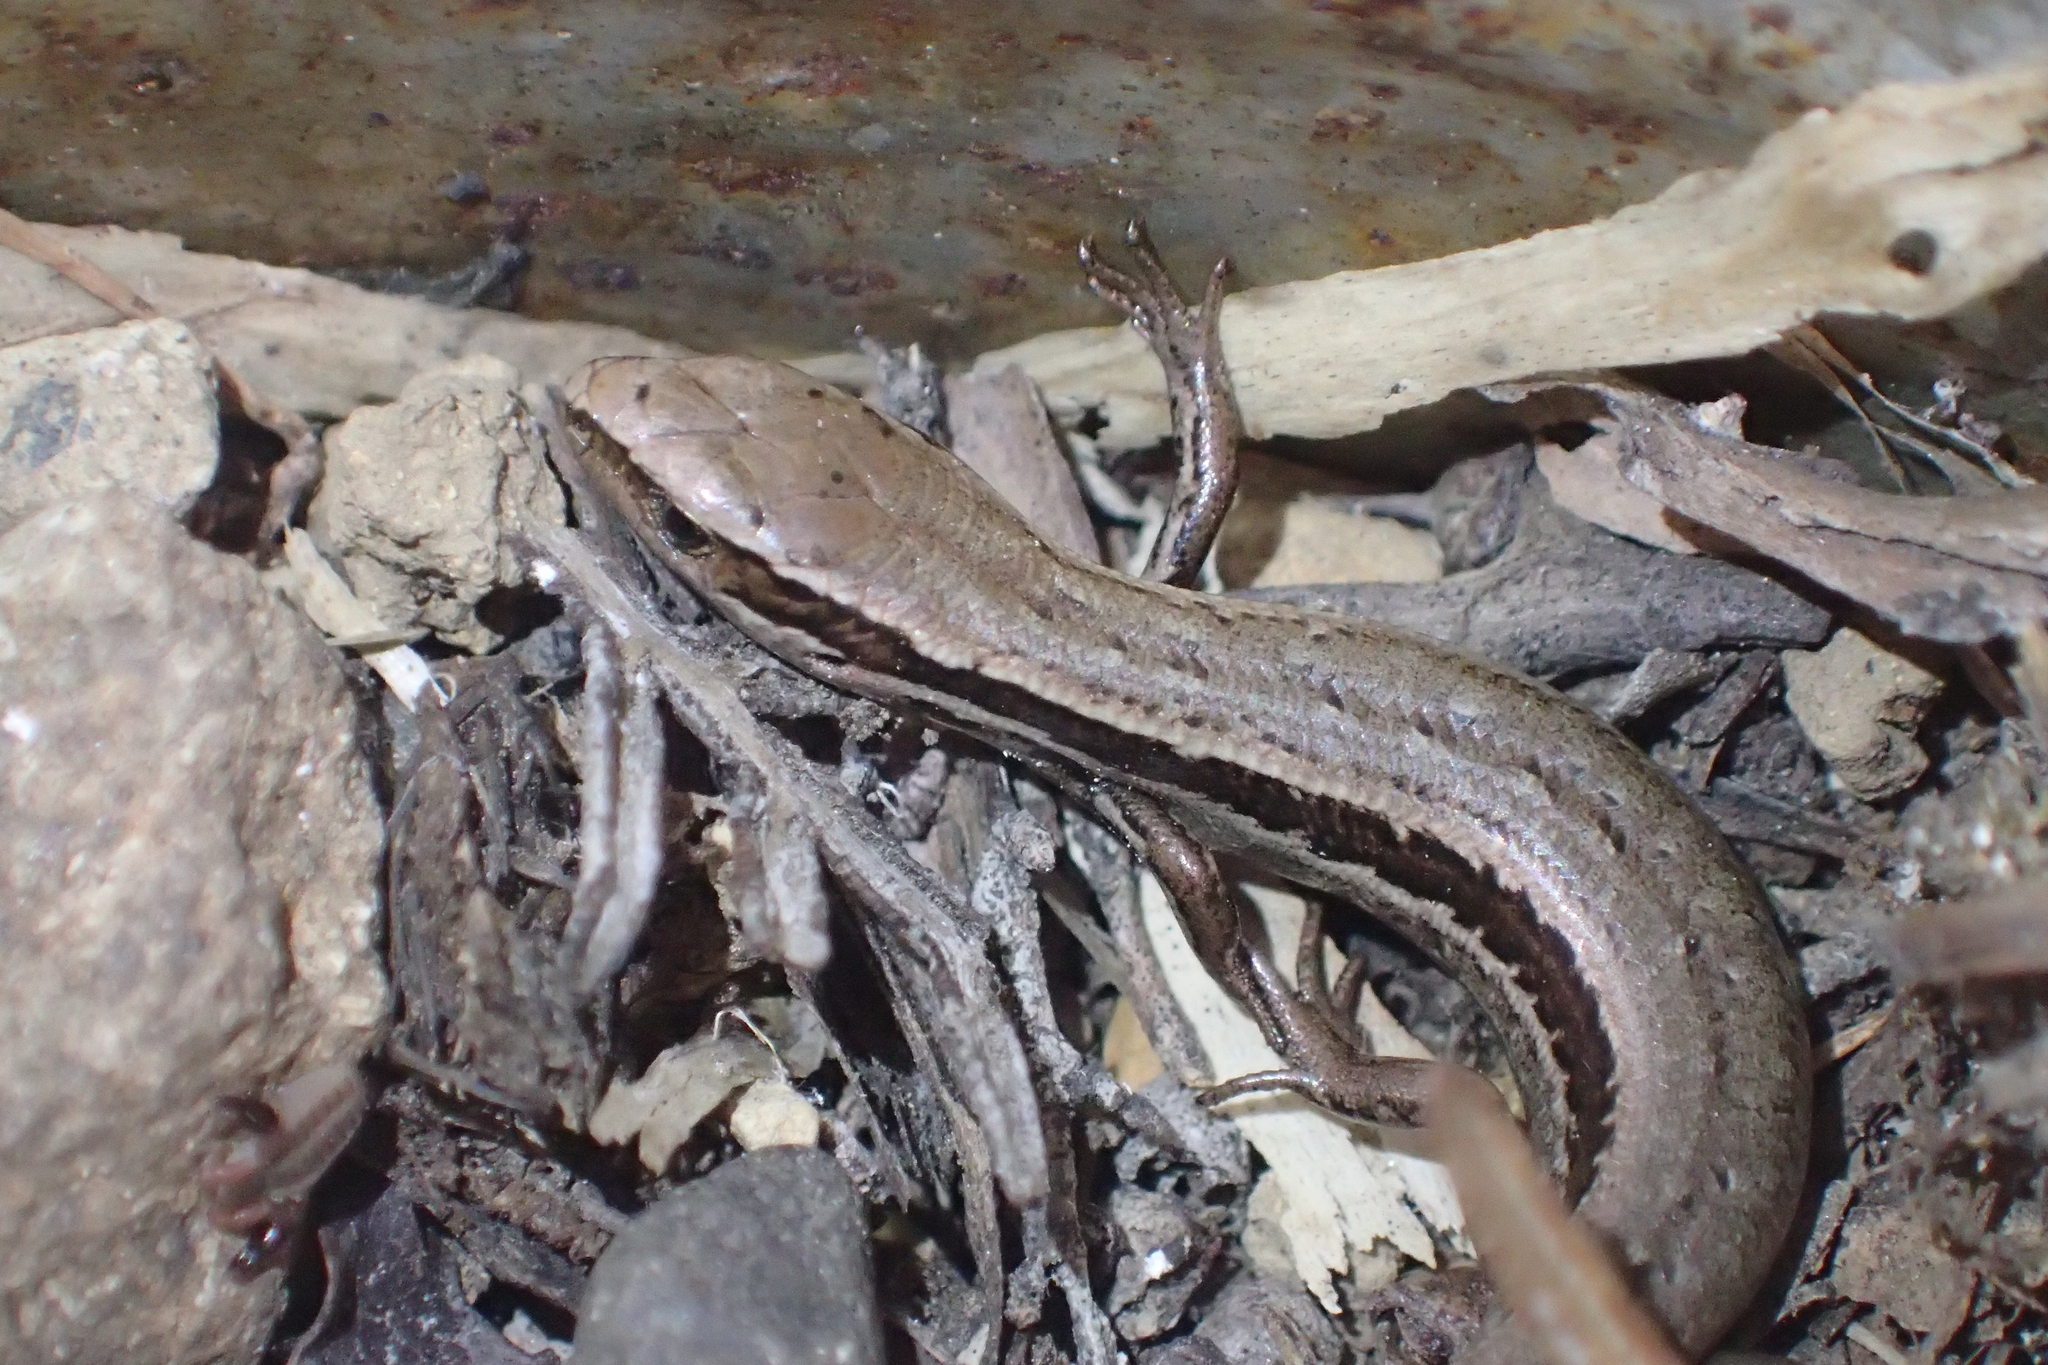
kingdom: Animalia
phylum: Chordata
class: Squamata
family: Scincidae
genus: Oligosoma
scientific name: Oligosoma polychroma
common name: Common new zealand skink
